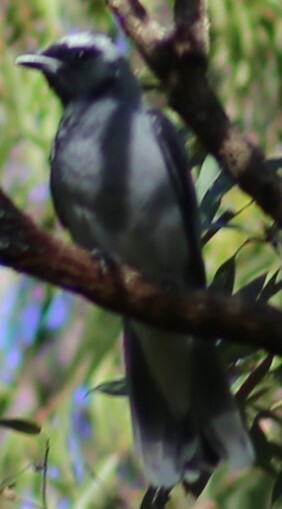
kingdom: Animalia
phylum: Chordata
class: Aves
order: Passeriformes
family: Campephagidae
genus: Coracina
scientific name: Coracina novaehollandiae
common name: Black-faced cuckooshrike
